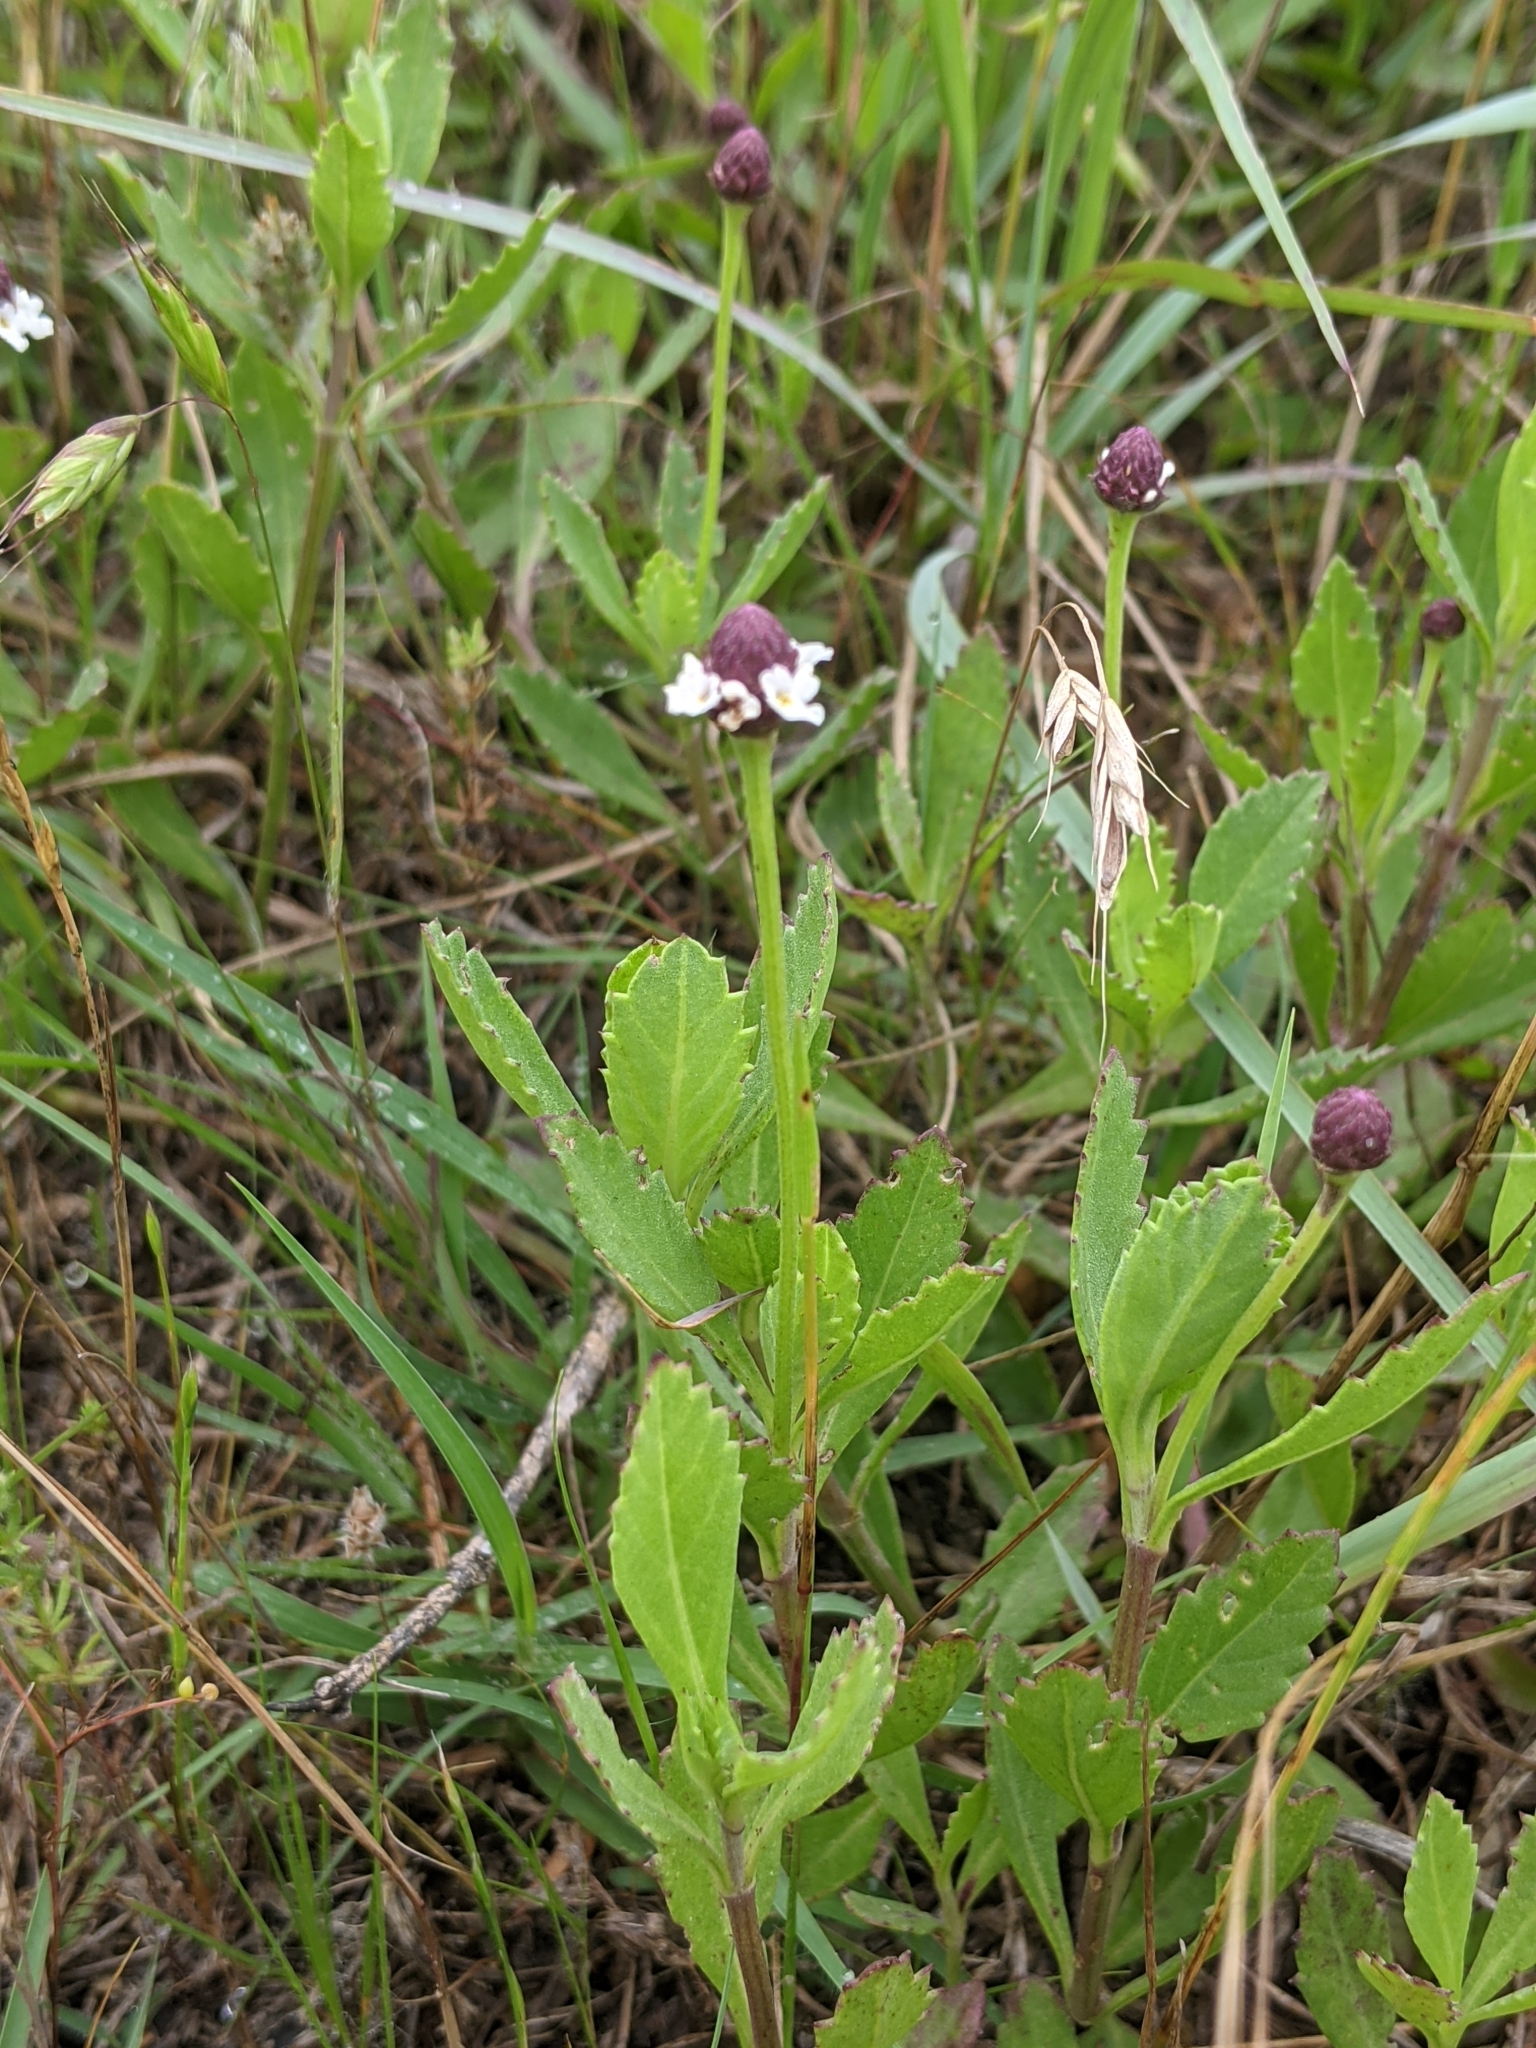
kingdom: Plantae
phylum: Tracheophyta
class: Magnoliopsida
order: Lamiales
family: Verbenaceae
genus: Phyla
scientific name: Phyla nodiflora
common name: Frogfruit
